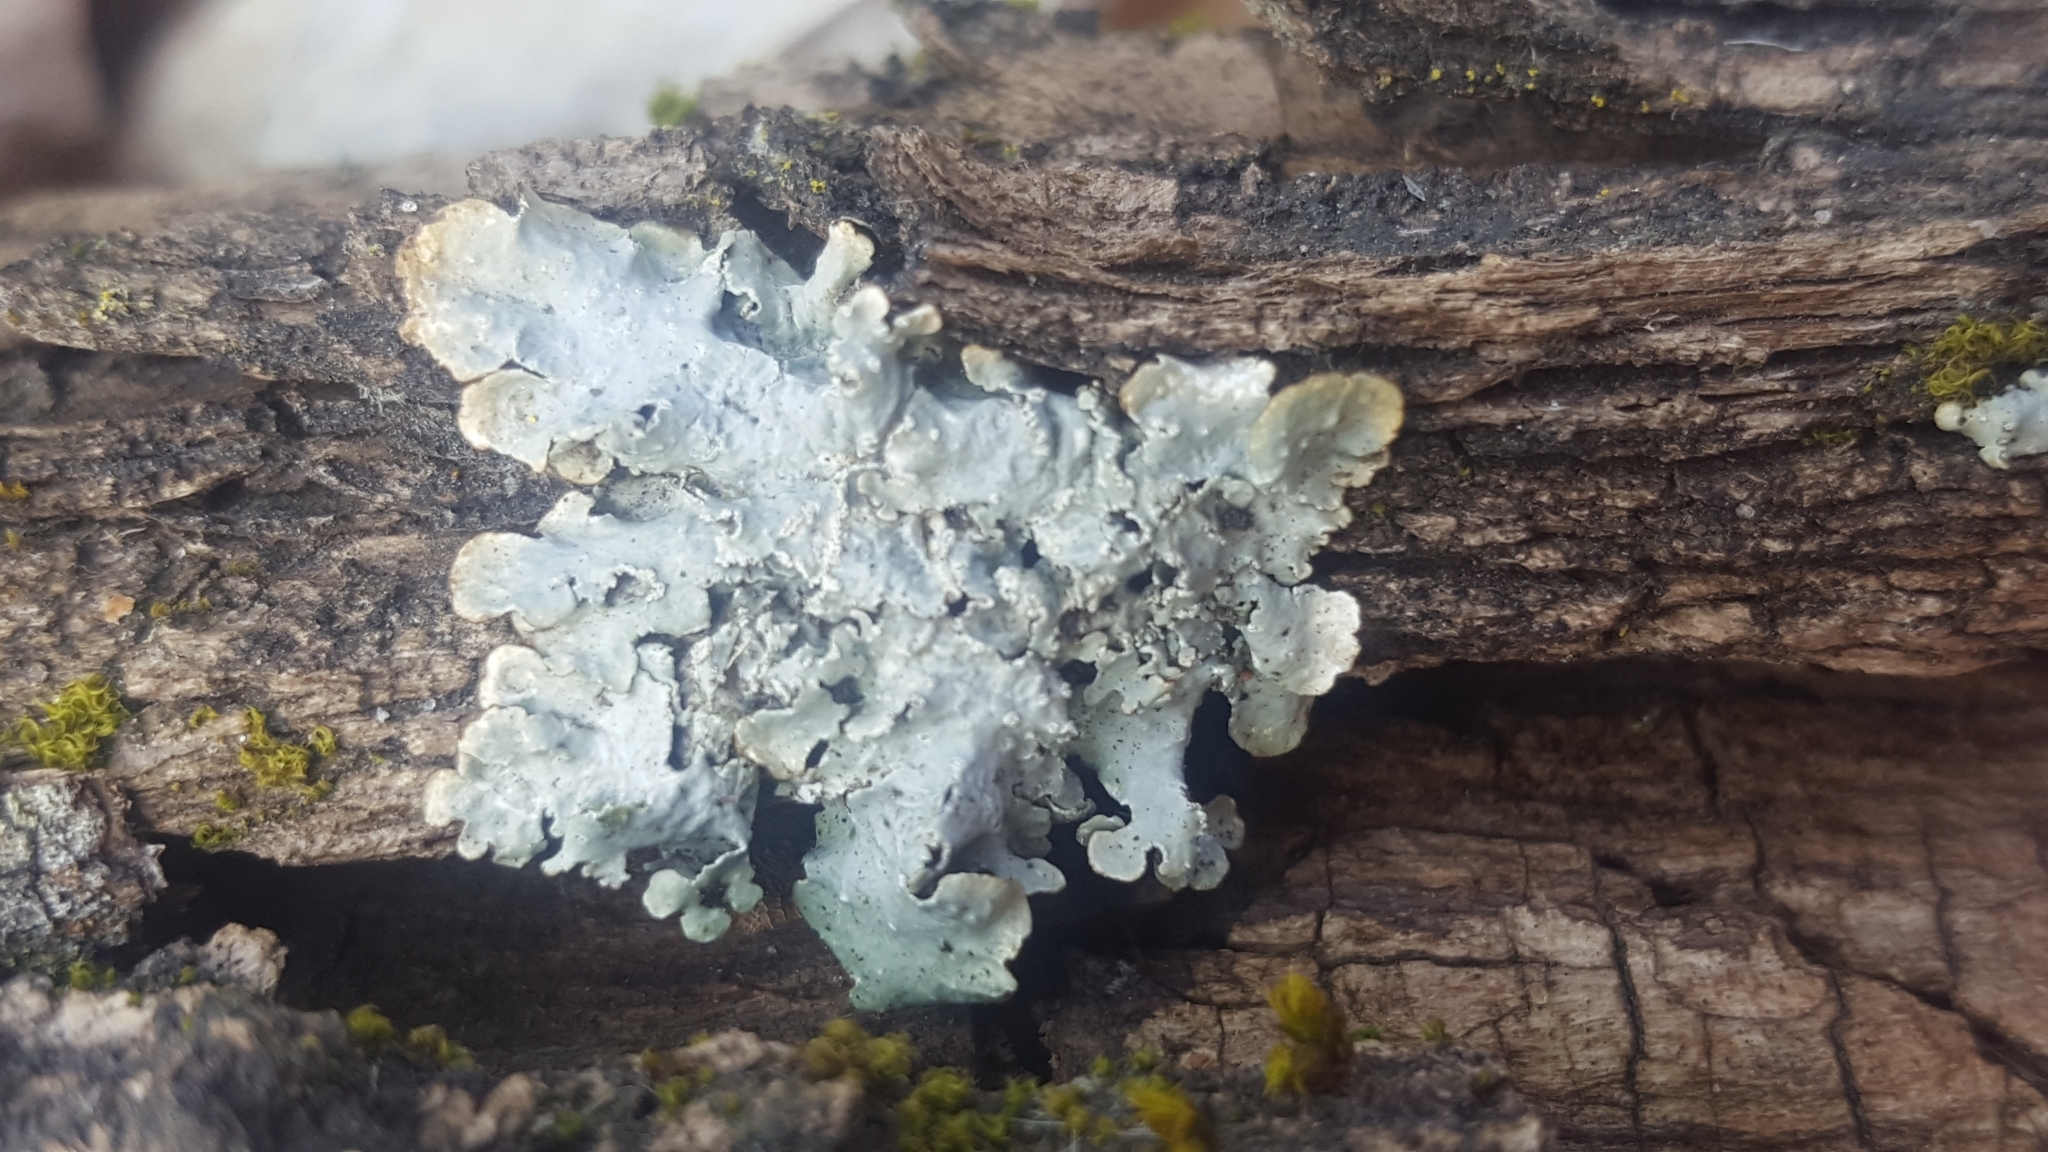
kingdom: Fungi
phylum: Ascomycota
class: Lecanoromycetes
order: Lecanorales
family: Parmeliaceae
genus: Parmelia
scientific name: Parmelia sulcata
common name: Netted shield lichen
